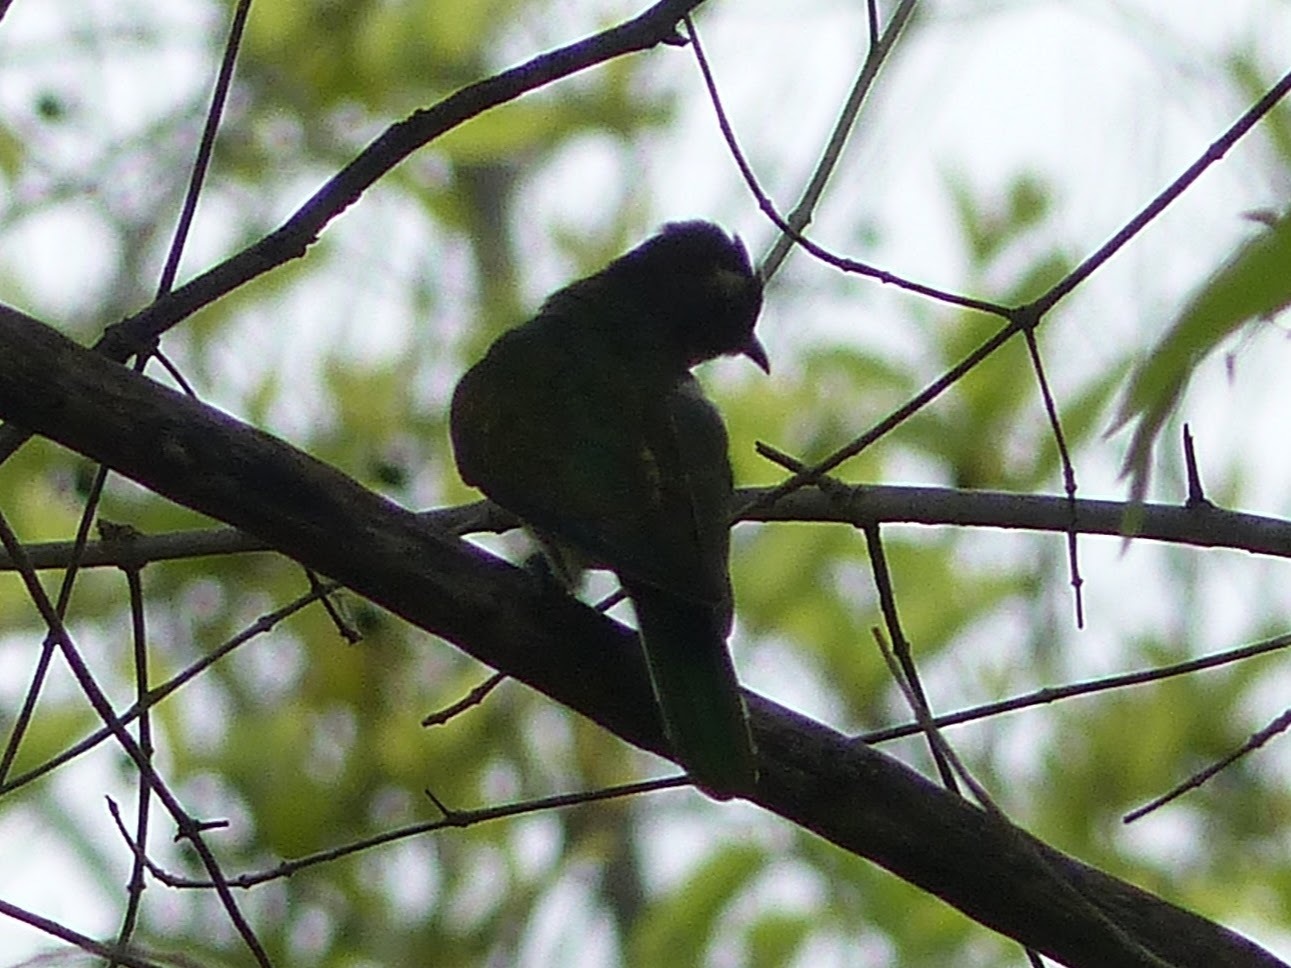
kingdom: Animalia
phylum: Chordata
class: Aves
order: Cuculiformes
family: Cuculidae
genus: Chrysococcyx
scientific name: Chrysococcyx klaas
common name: Klaas's cuckoo
